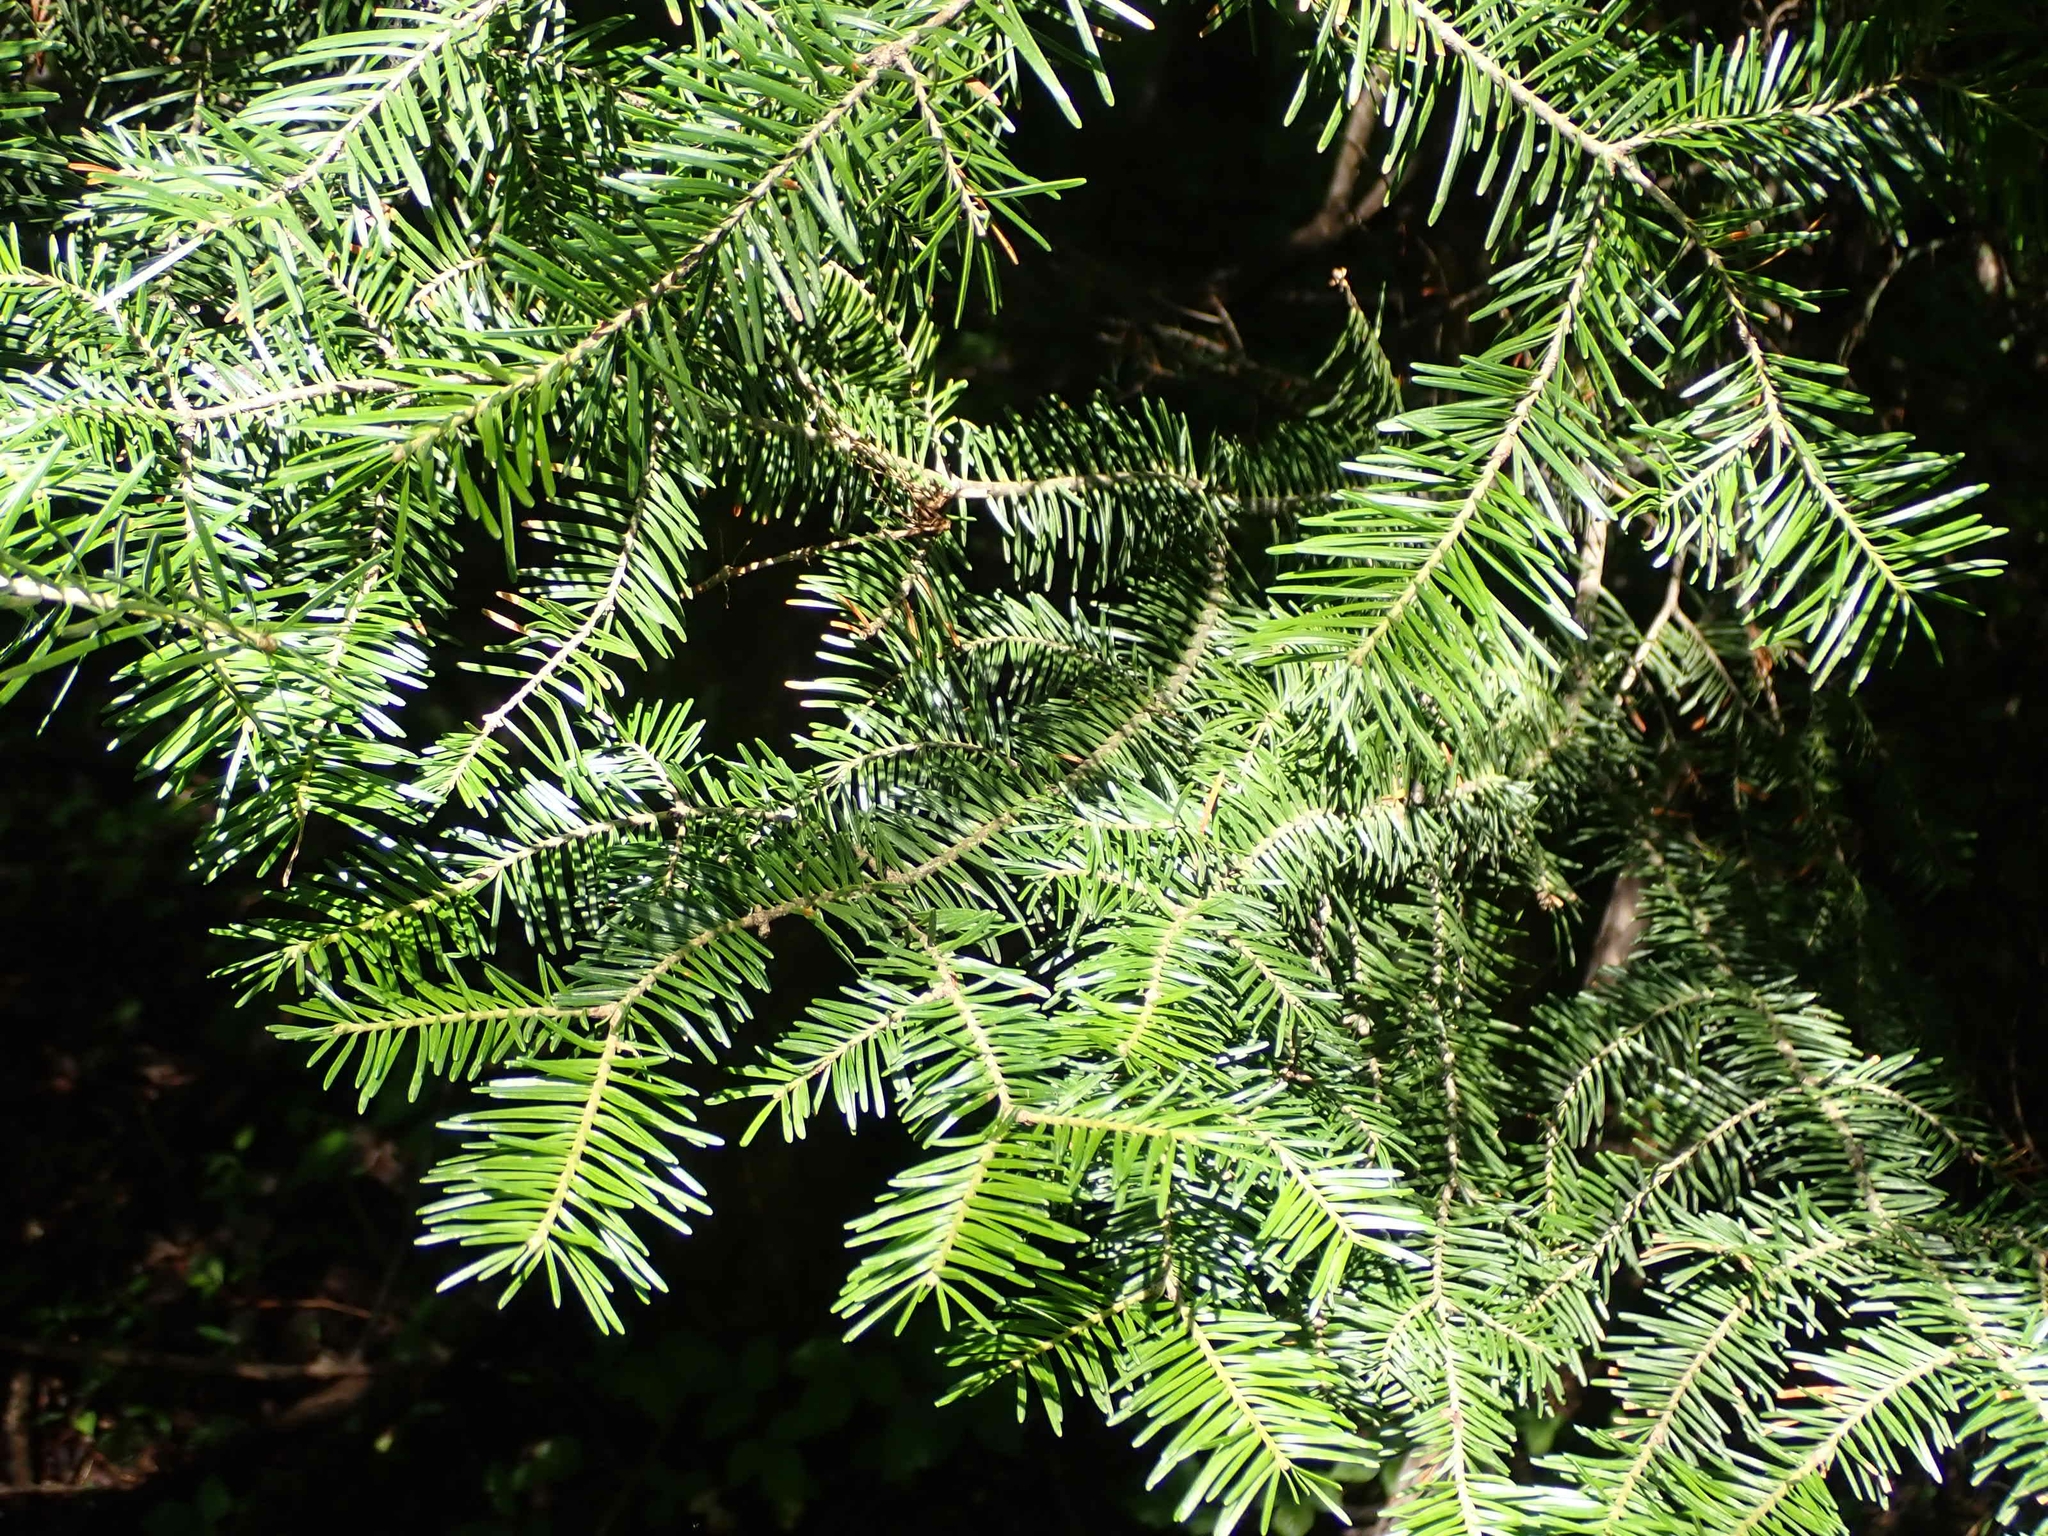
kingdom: Plantae
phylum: Tracheophyta
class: Pinopsida
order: Pinales
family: Pinaceae
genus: Abies
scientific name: Abies balsamea
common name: Balsam fir
